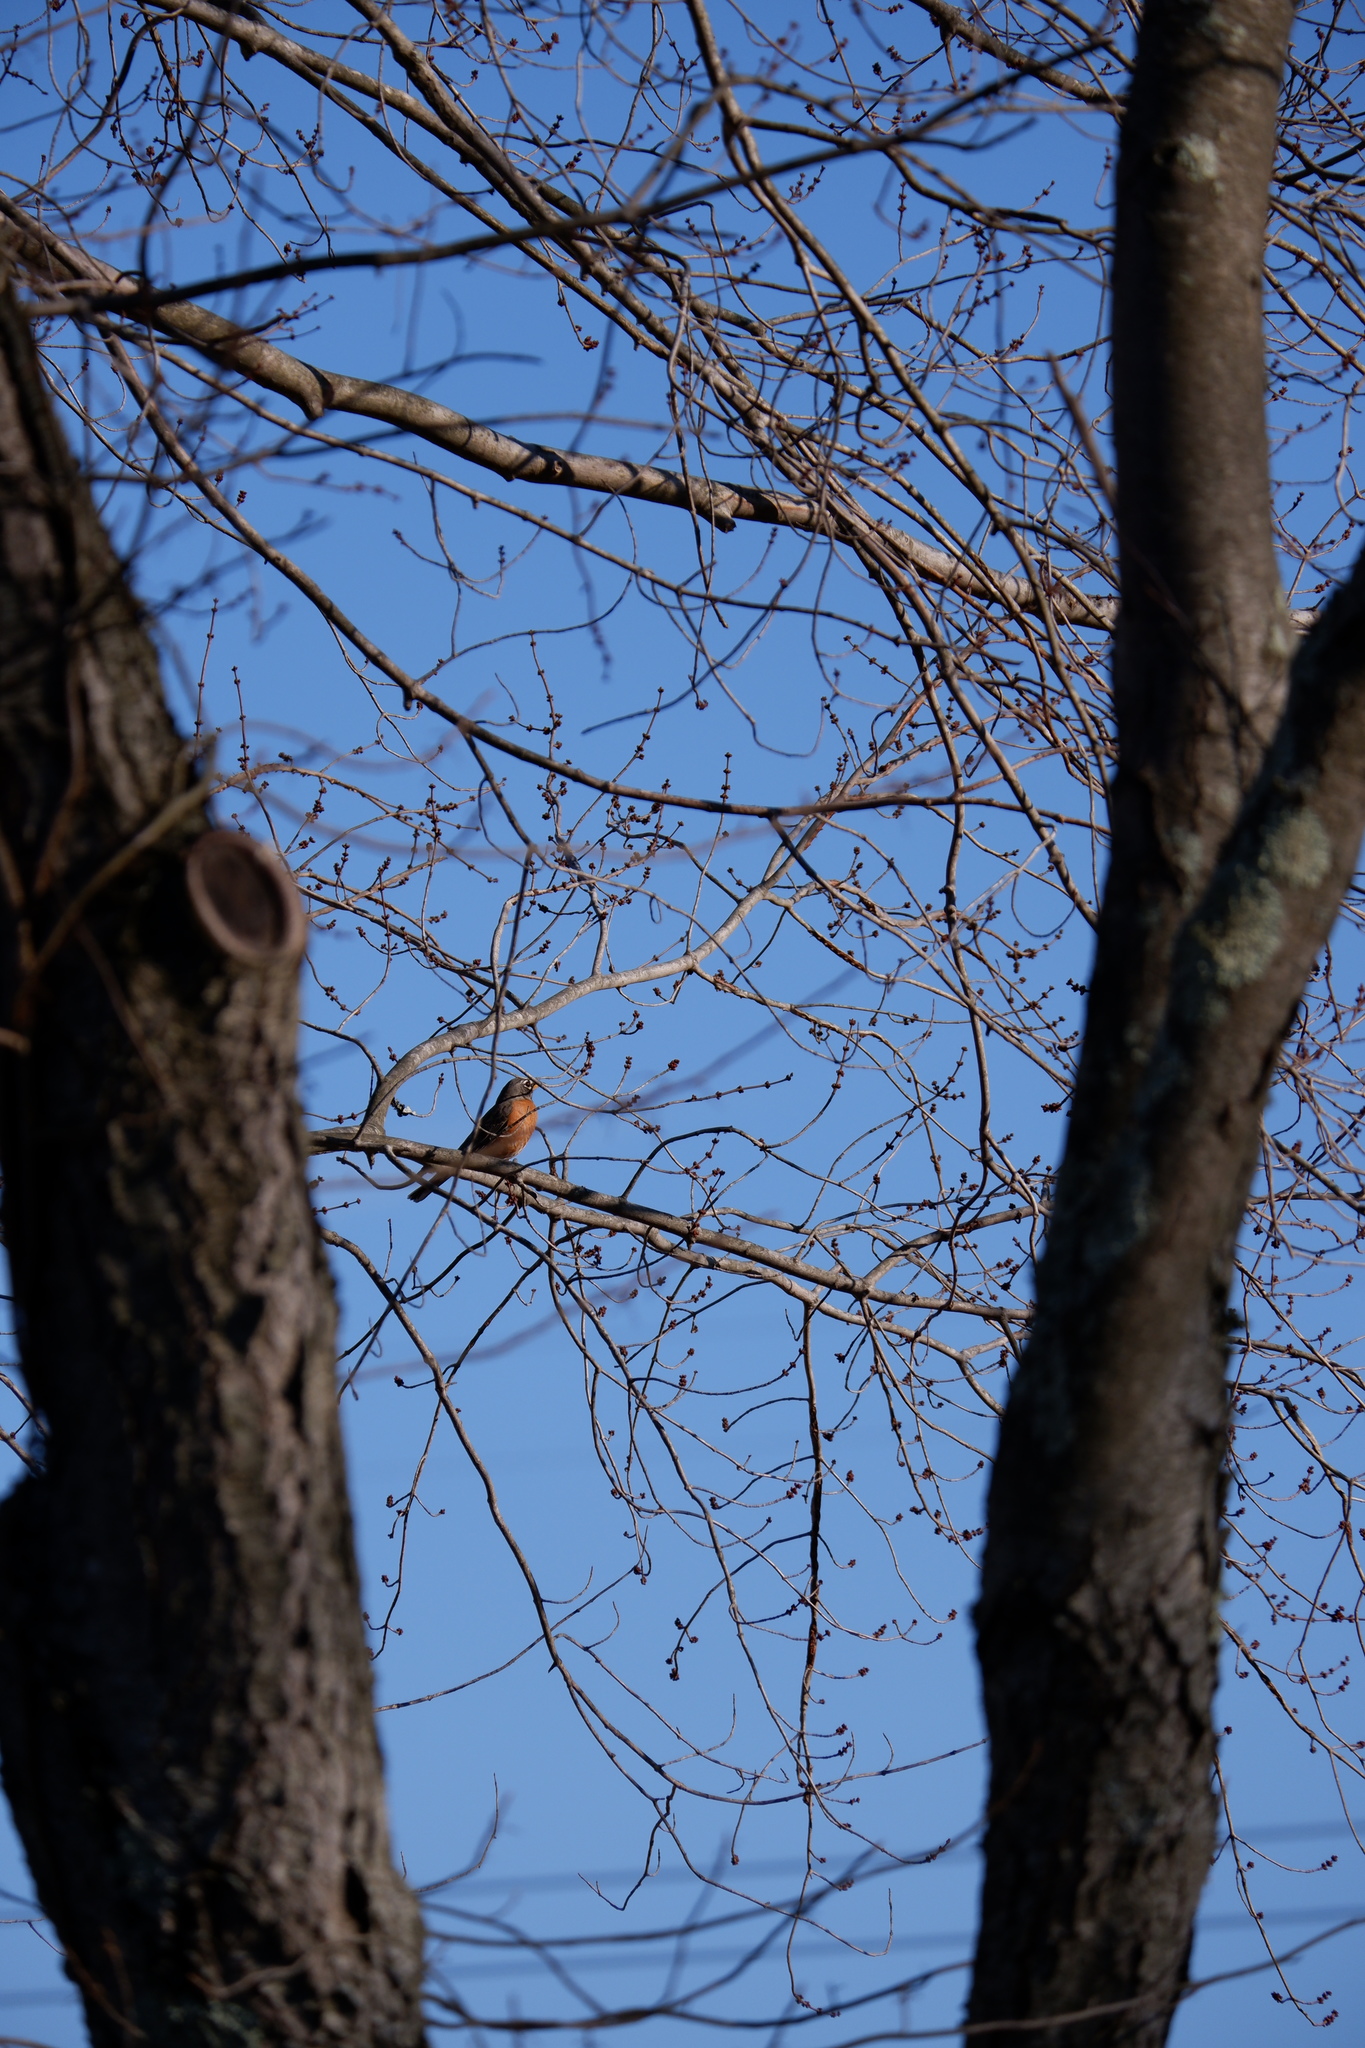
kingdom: Animalia
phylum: Chordata
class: Aves
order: Passeriformes
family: Turdidae
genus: Turdus
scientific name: Turdus migratorius
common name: American robin
